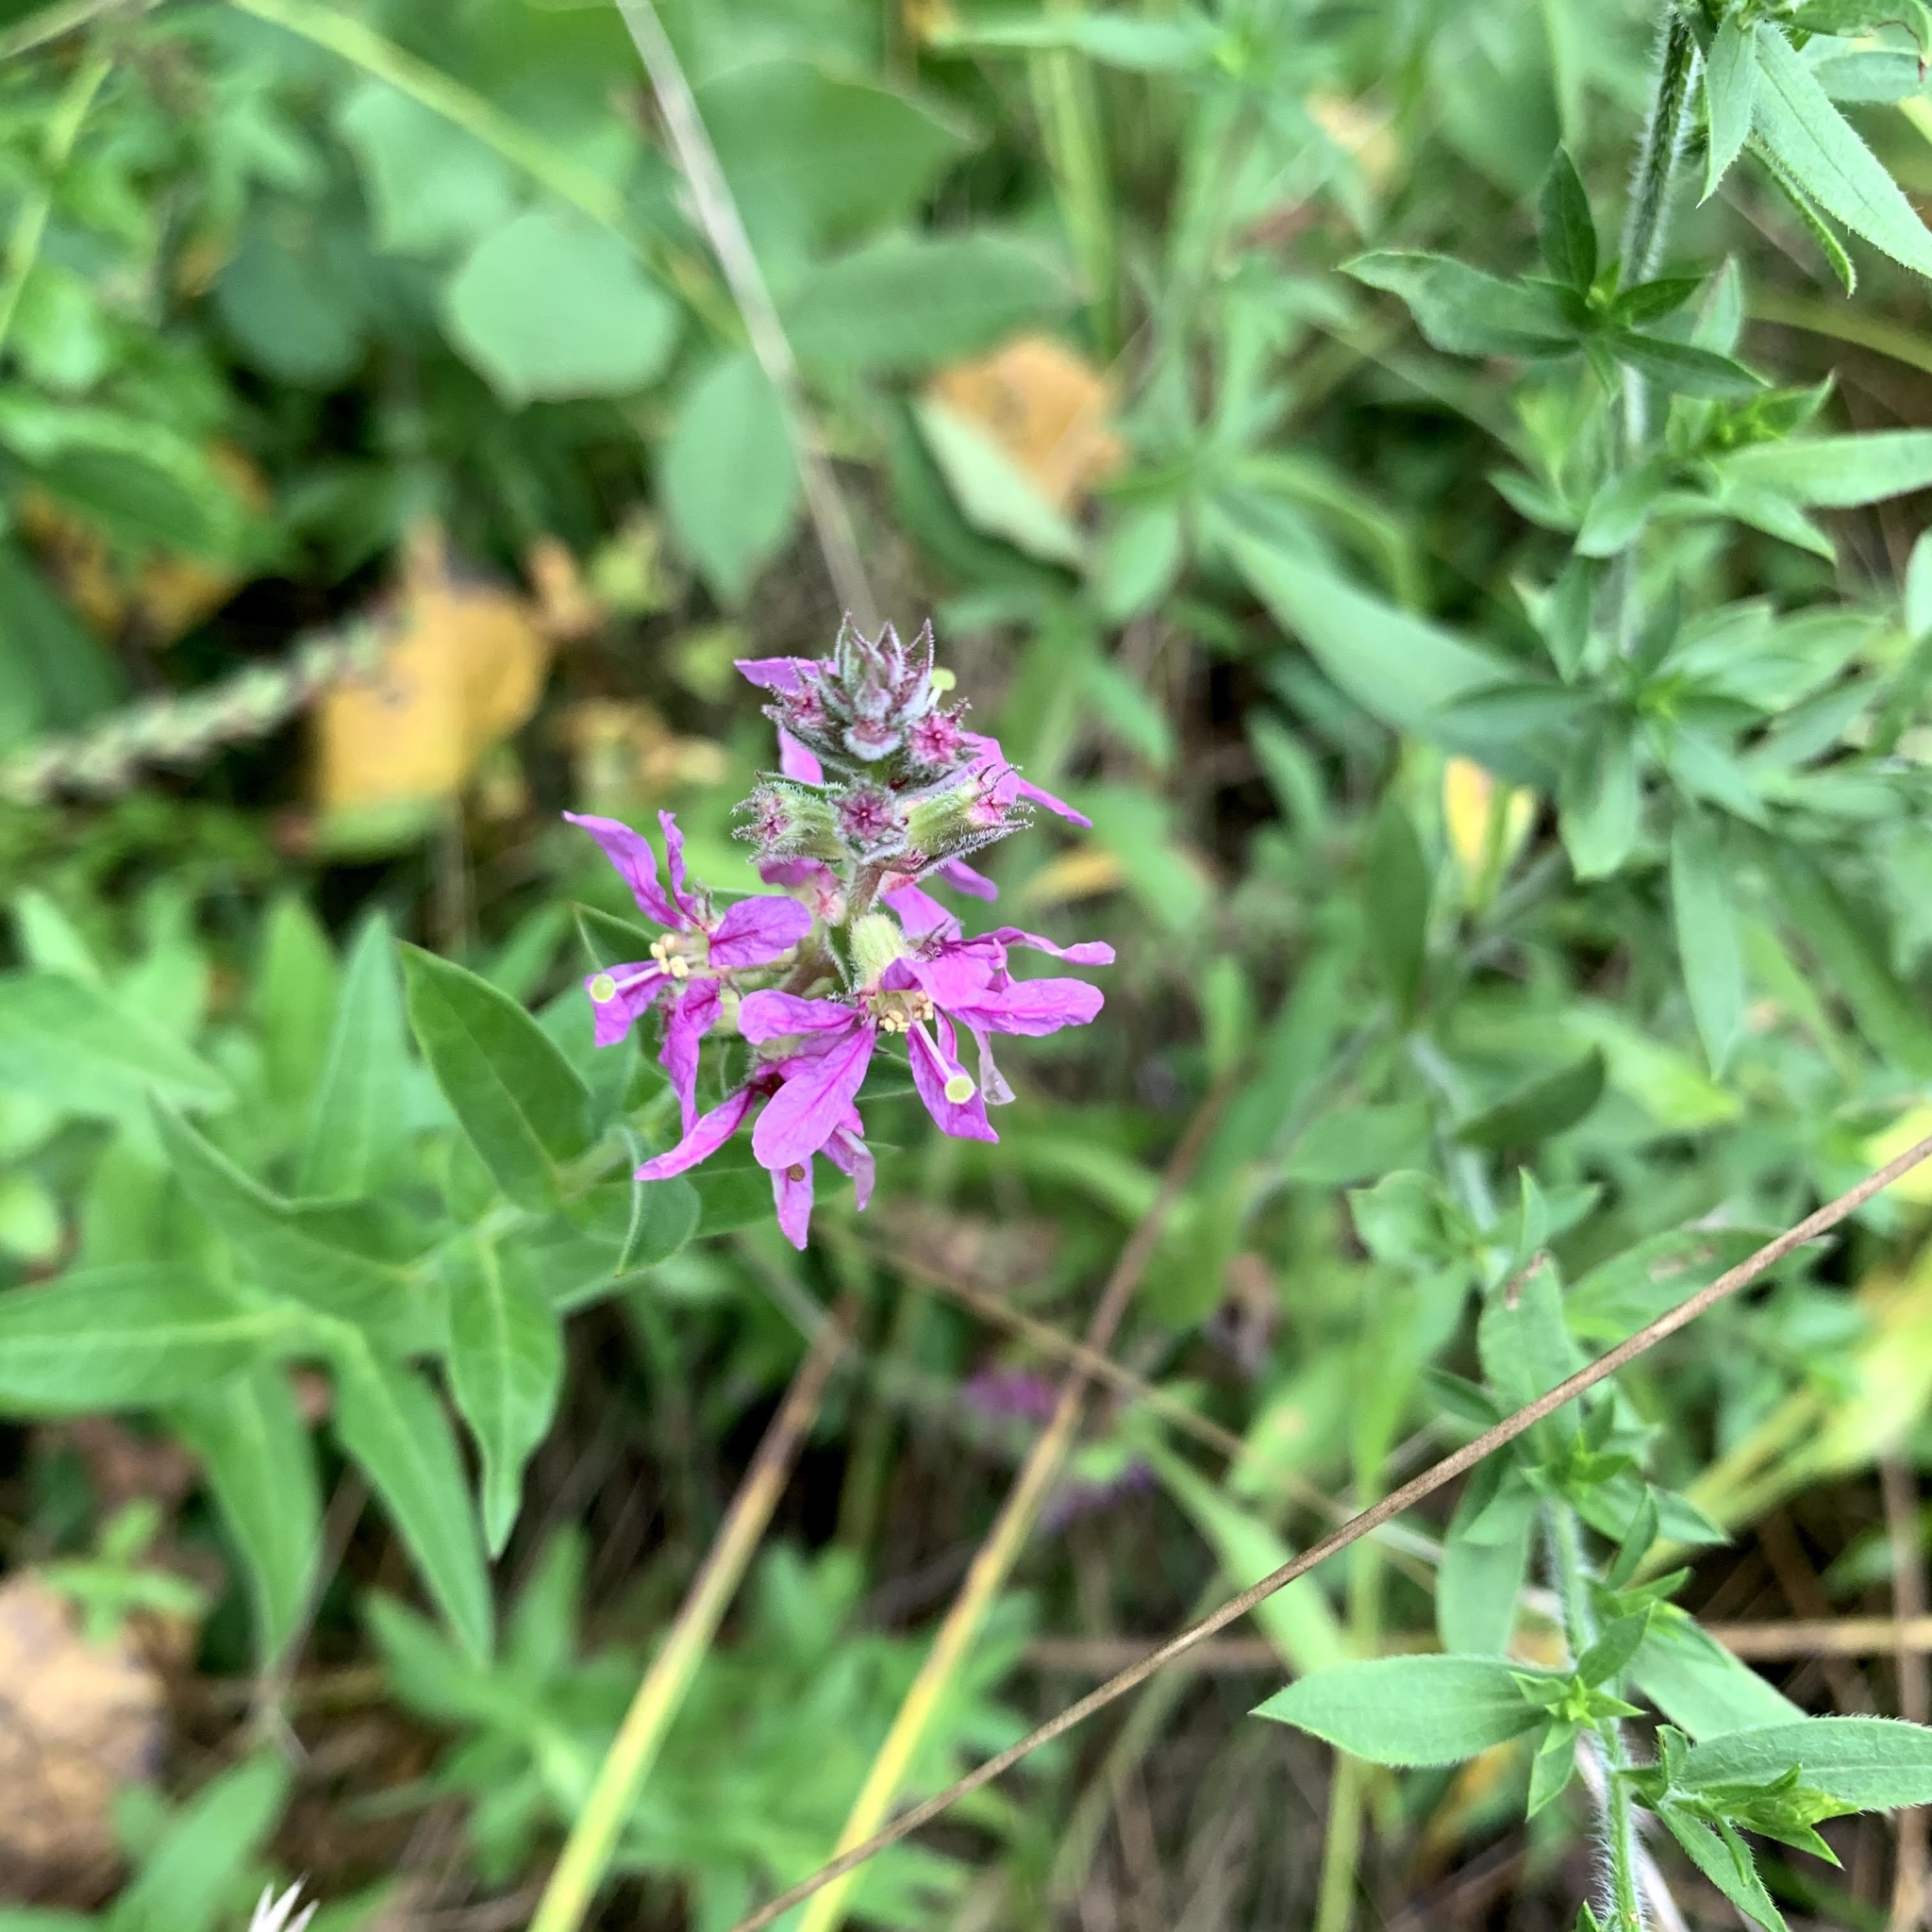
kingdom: Plantae
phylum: Tracheophyta
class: Magnoliopsida
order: Myrtales
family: Lythraceae
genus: Lythrum
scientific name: Lythrum salicaria
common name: Purple loosestrife
